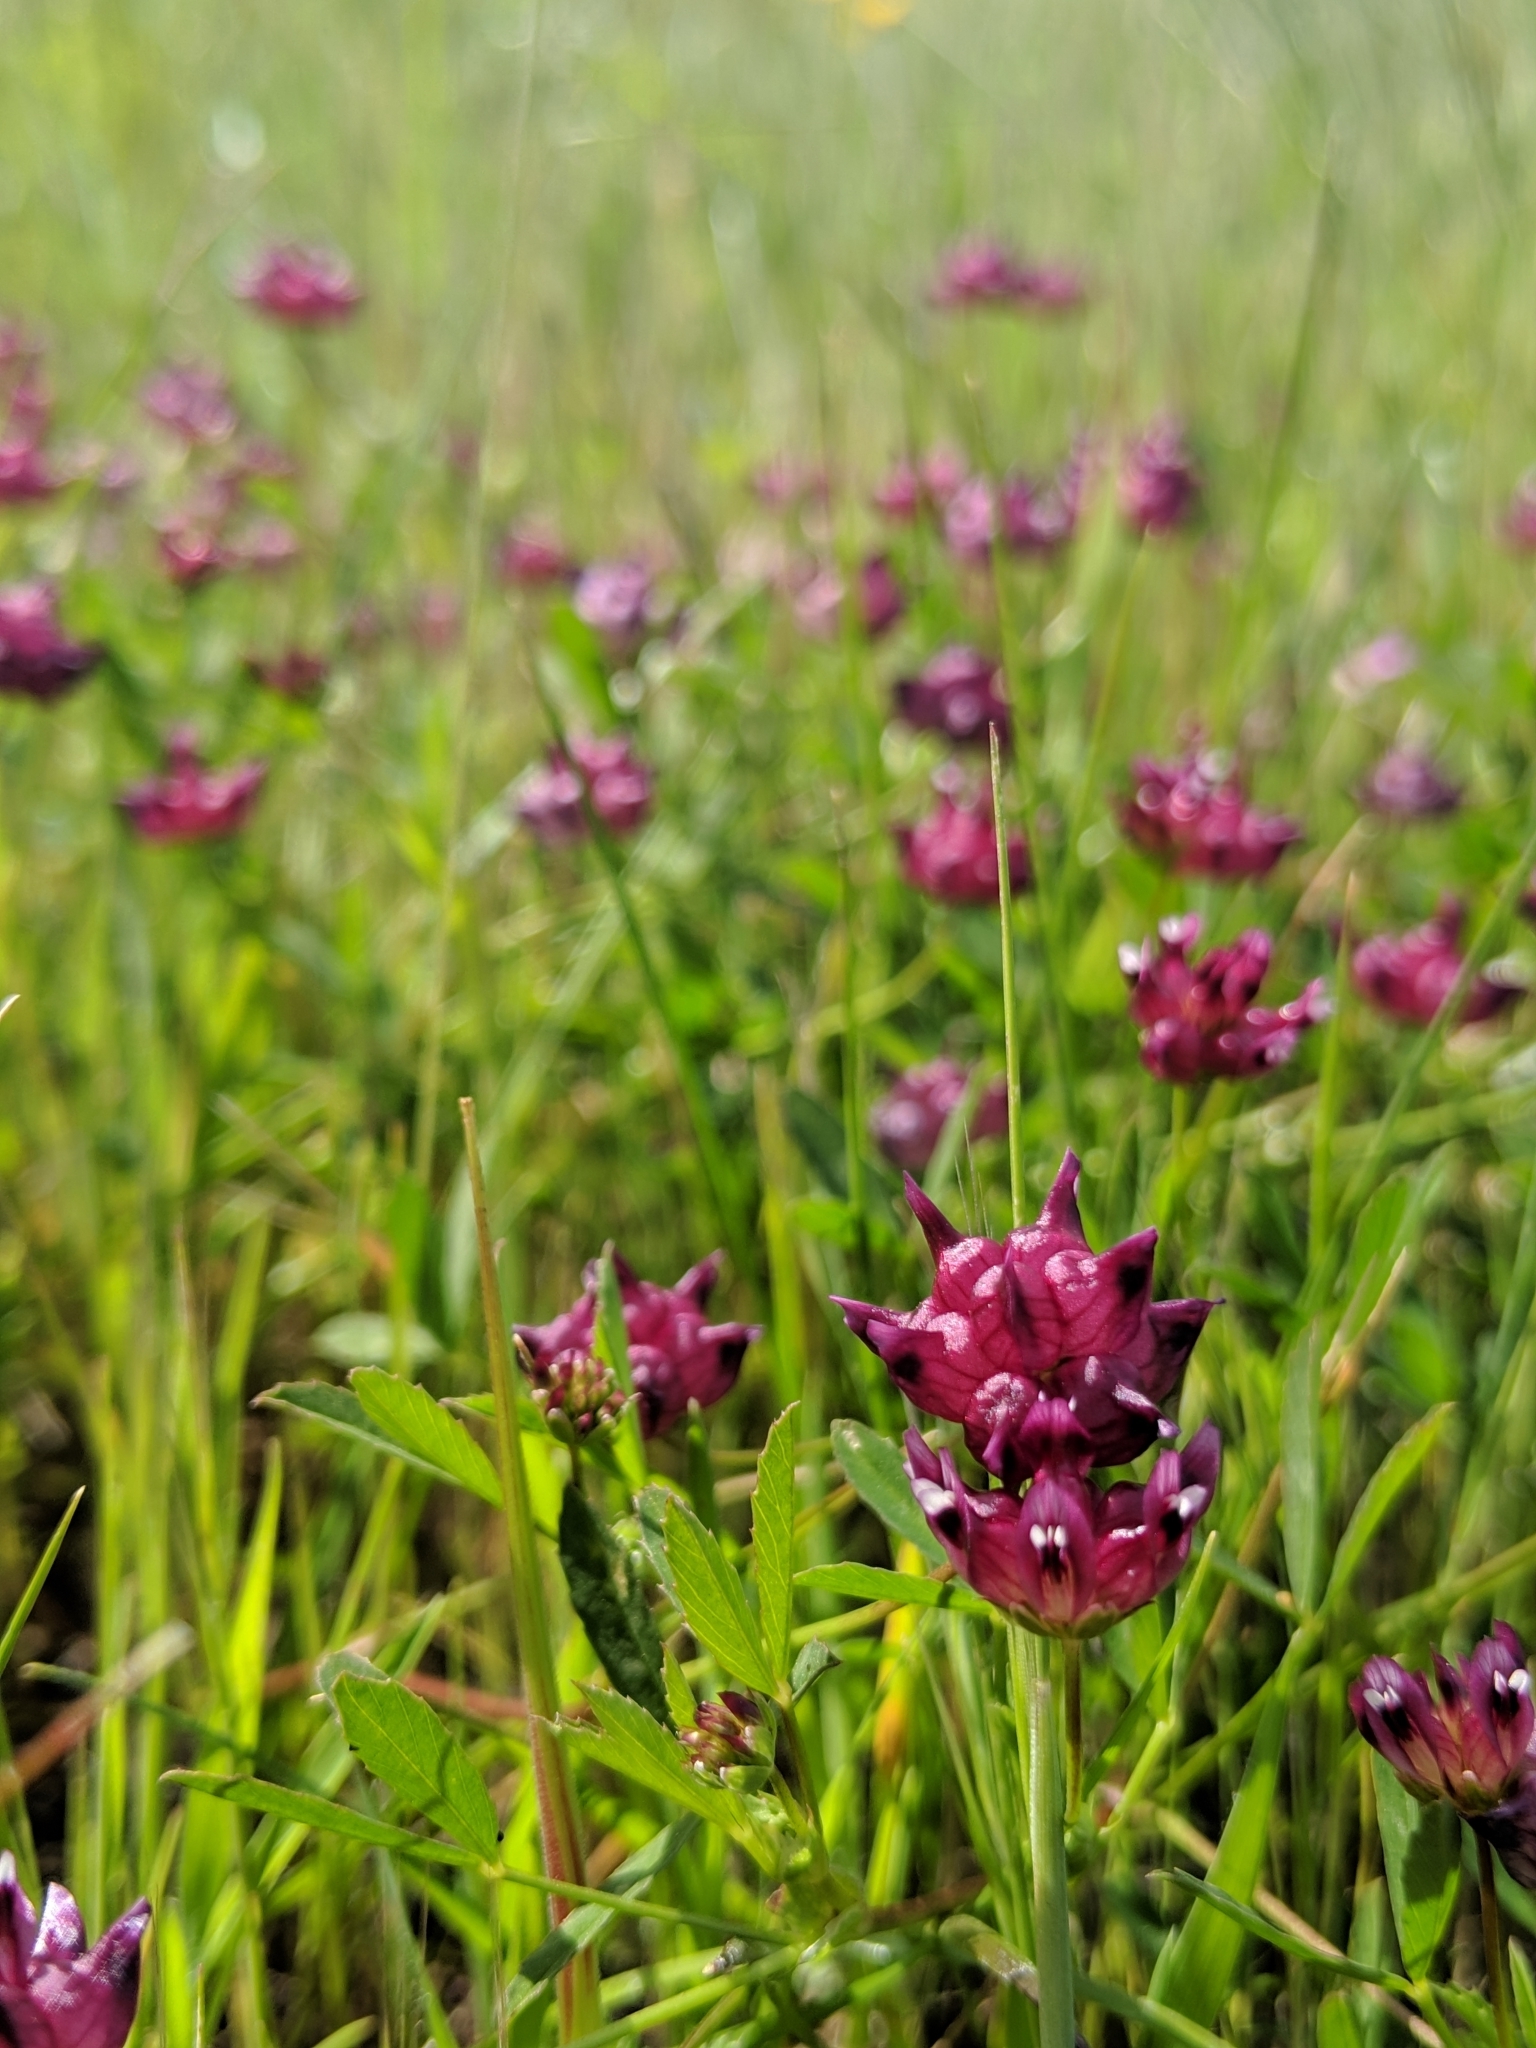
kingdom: Plantae
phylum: Tracheophyta
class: Magnoliopsida
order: Fabales
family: Fabaceae
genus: Trifolium
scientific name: Trifolium depauperatum
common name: Poverty clover
